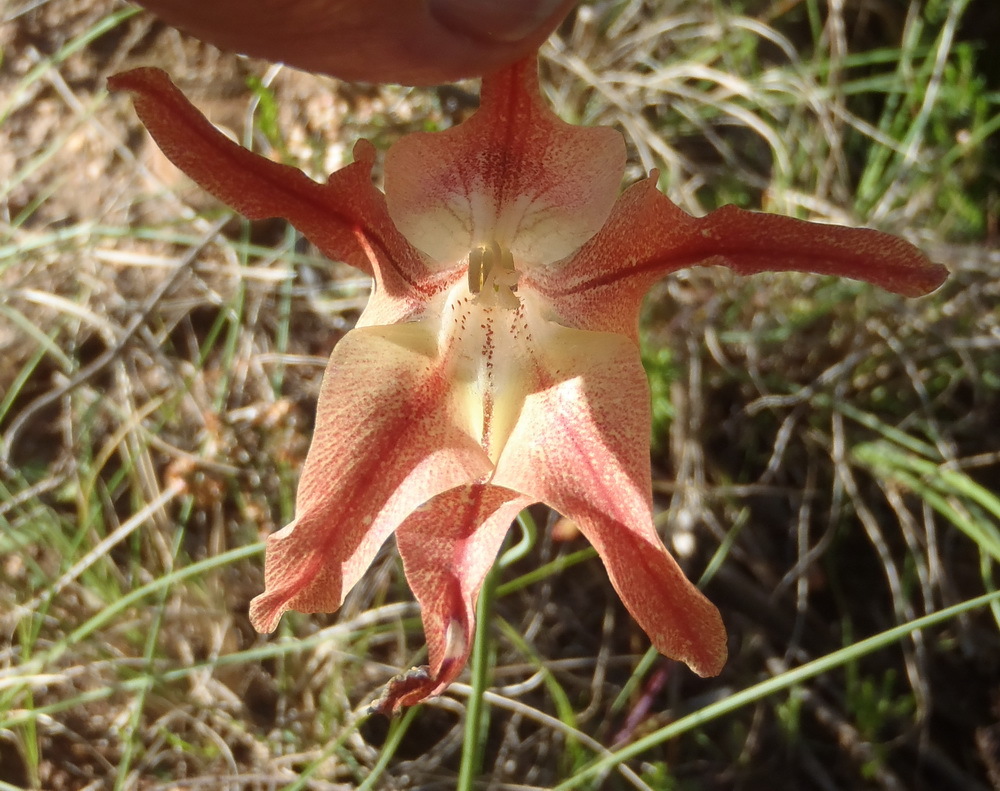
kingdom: Plantae
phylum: Tracheophyta
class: Liliopsida
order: Asparagales
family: Iridaceae
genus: Gladiolus
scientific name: Gladiolus liliaceus
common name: Large brown afrikaner
